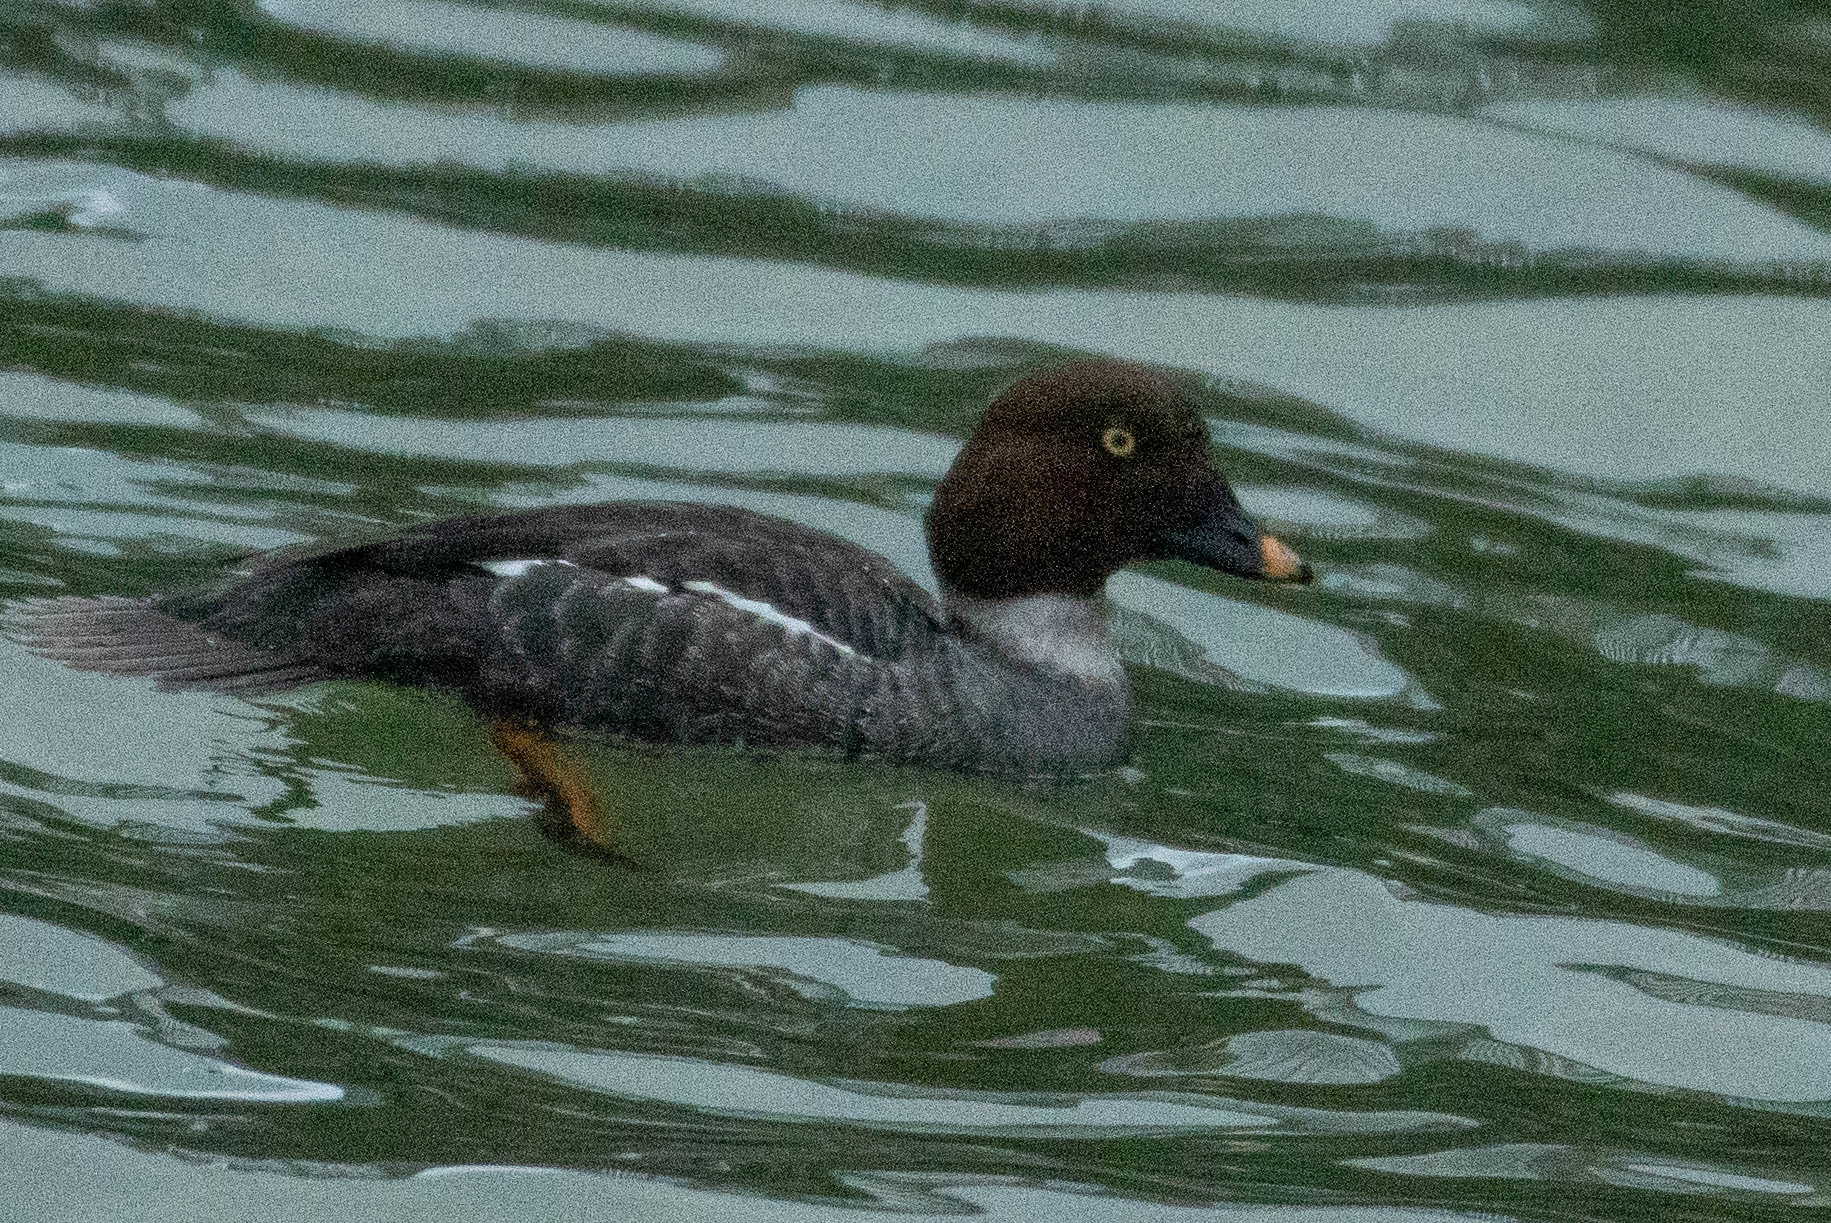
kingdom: Animalia
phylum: Chordata
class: Aves
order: Anseriformes
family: Anatidae
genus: Bucephala
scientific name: Bucephala clangula
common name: Common goldeneye
